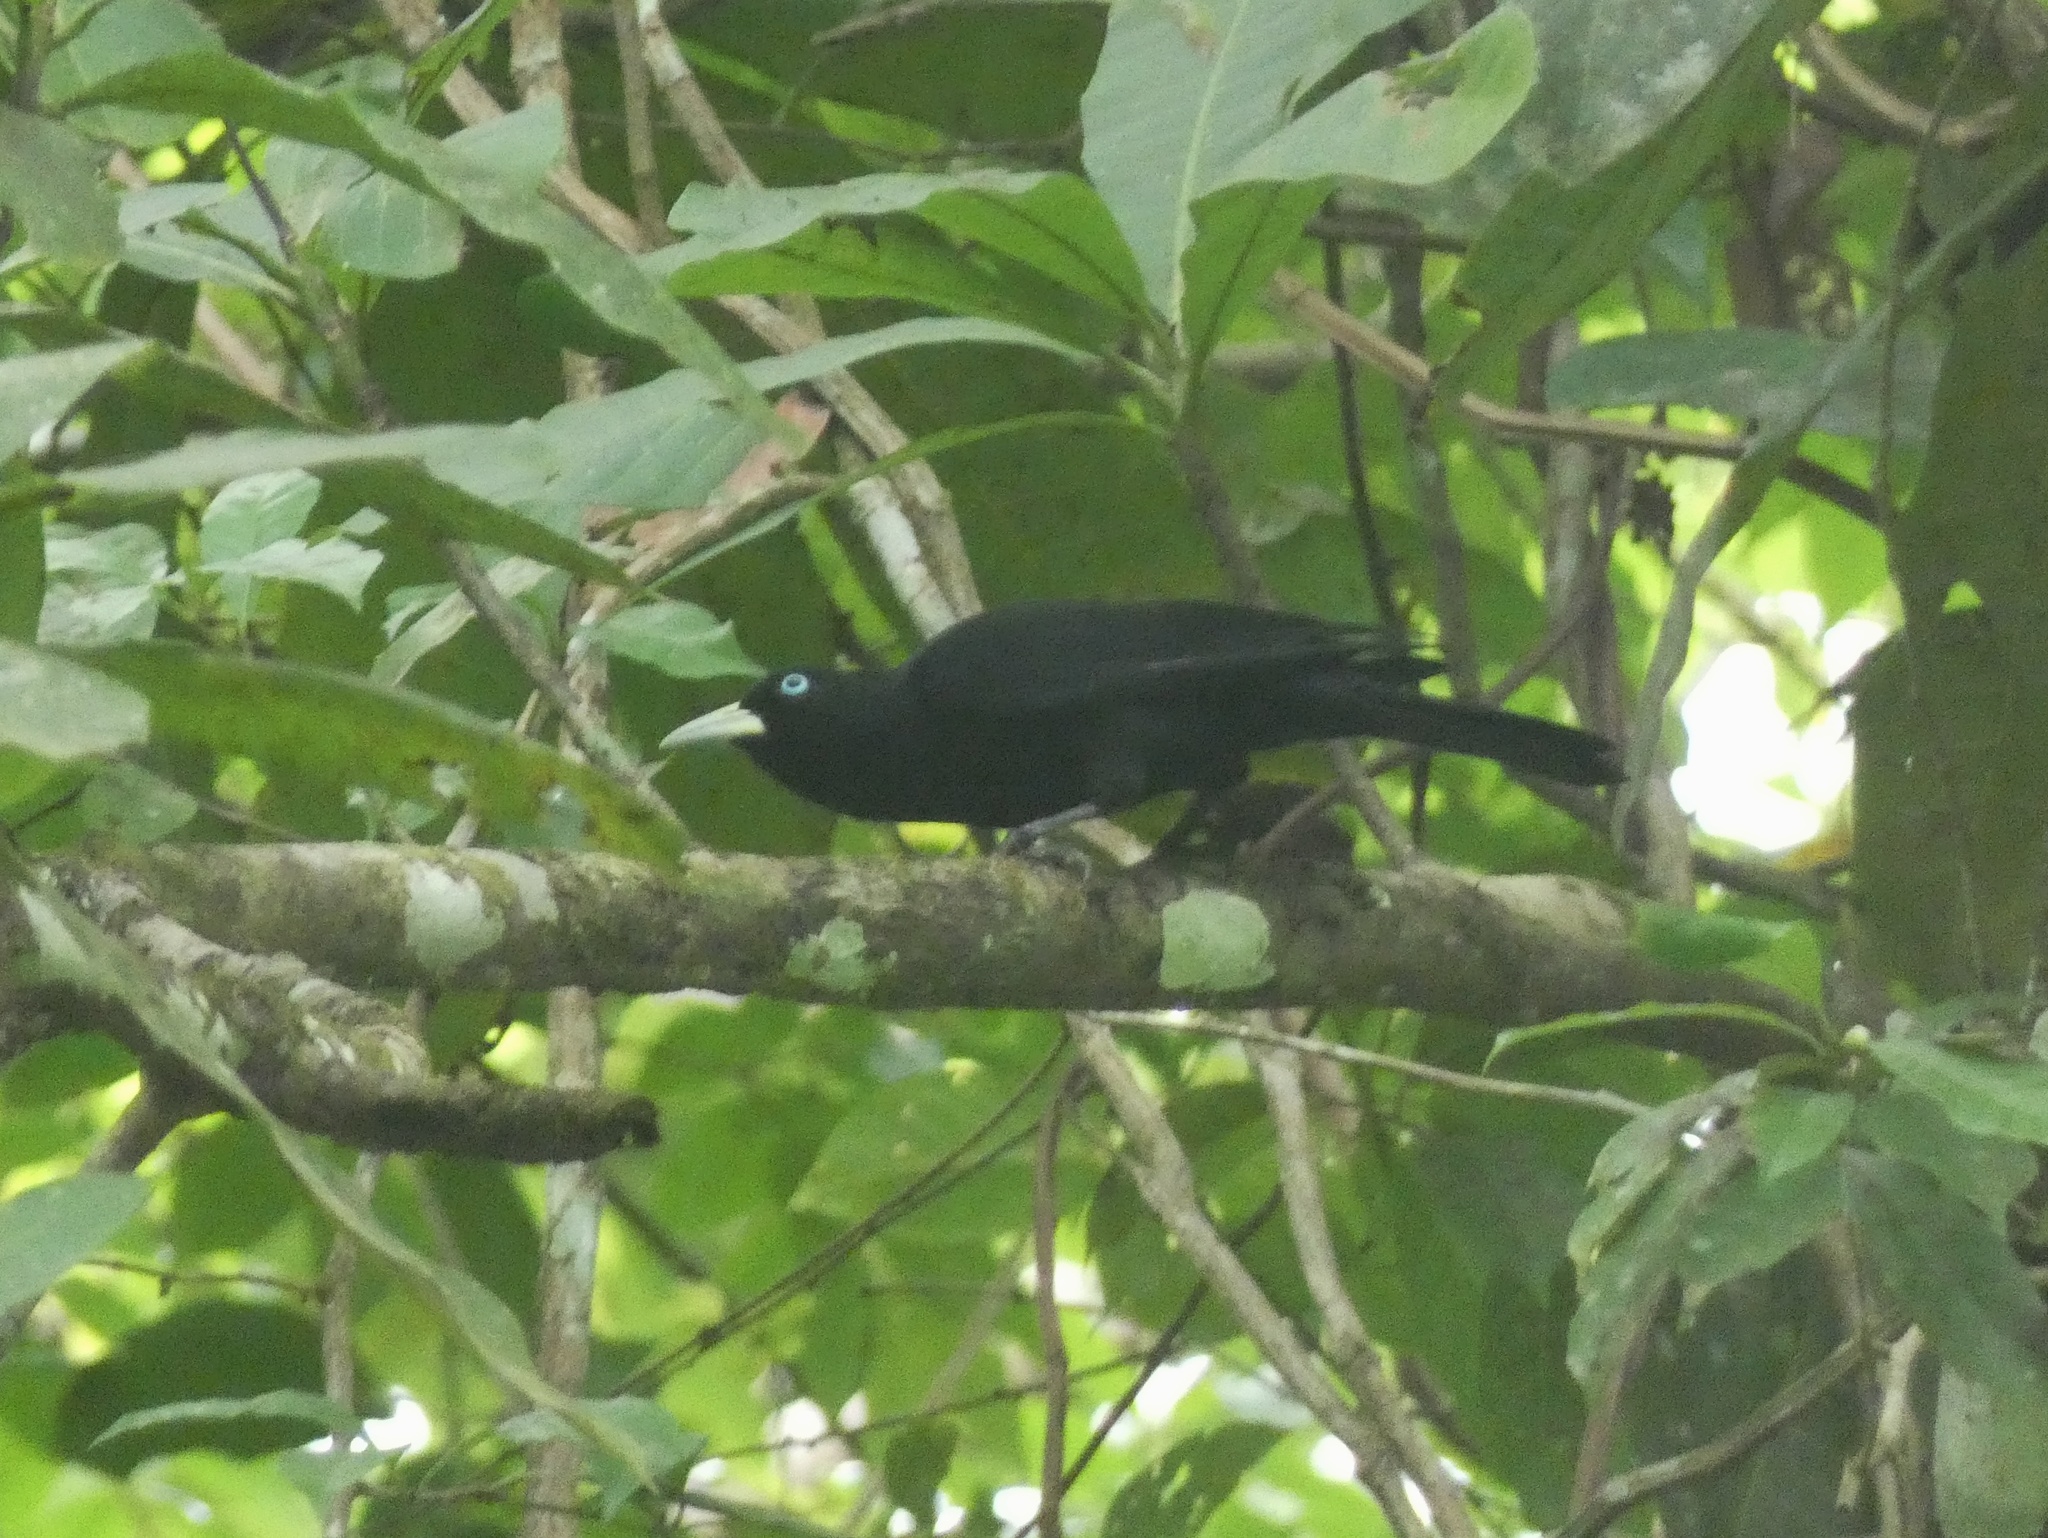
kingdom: Animalia
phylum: Chordata
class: Aves
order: Passeriformes
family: Icteridae
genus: Cacicus
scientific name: Cacicus uropygialis
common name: Scarlet-rumped cacique
